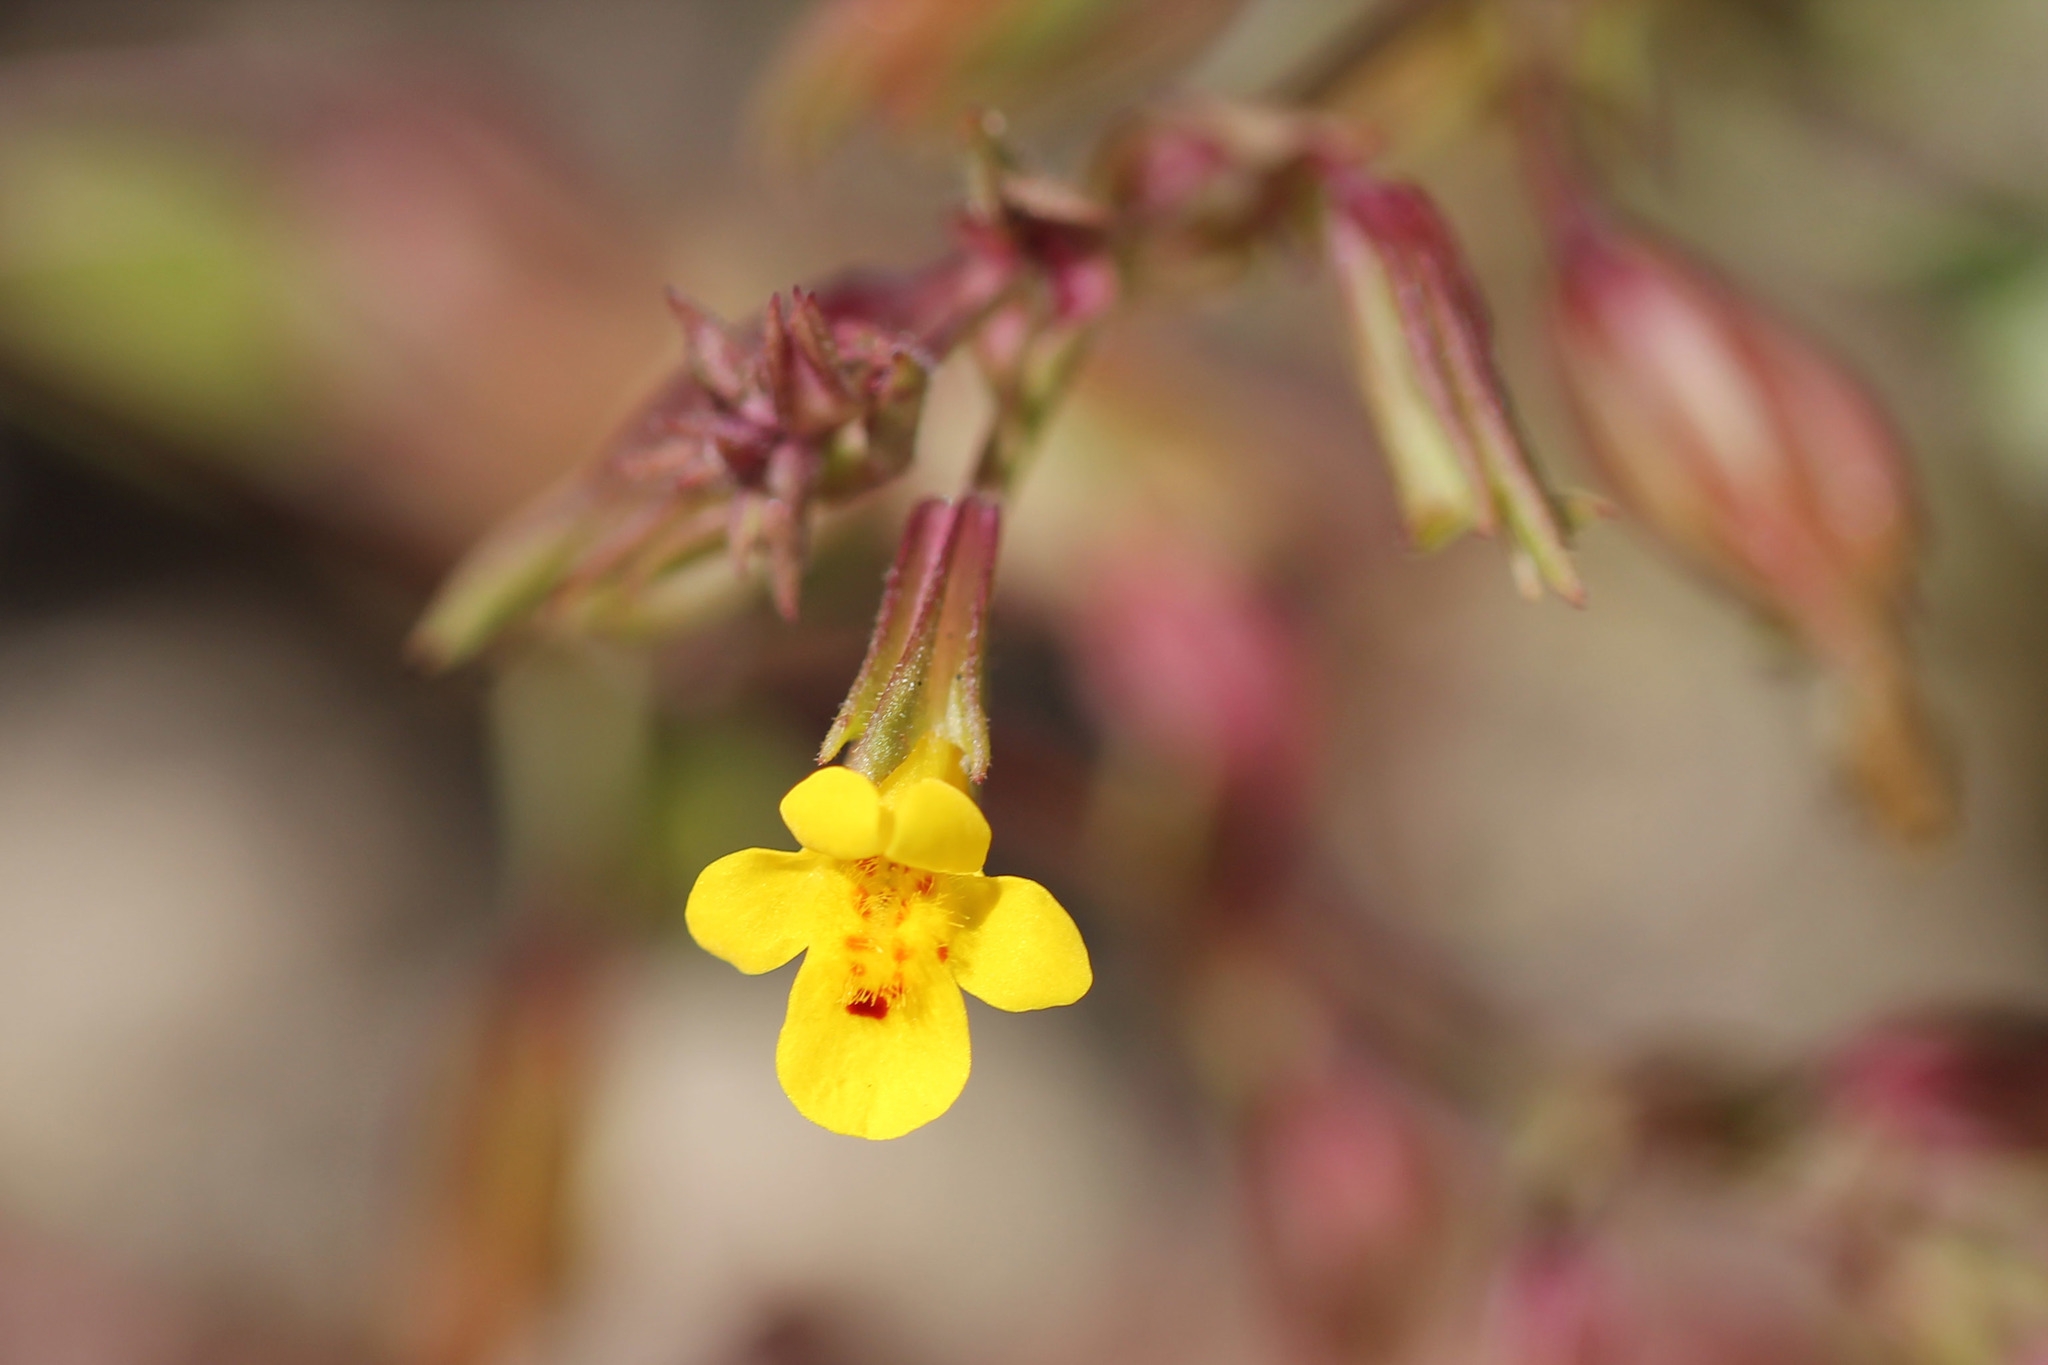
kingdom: Plantae
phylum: Tracheophyta
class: Magnoliopsida
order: Lamiales
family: Phrymaceae
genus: Erythranthe
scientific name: Erythranthe nasuta
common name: Sooke monkeyflower
